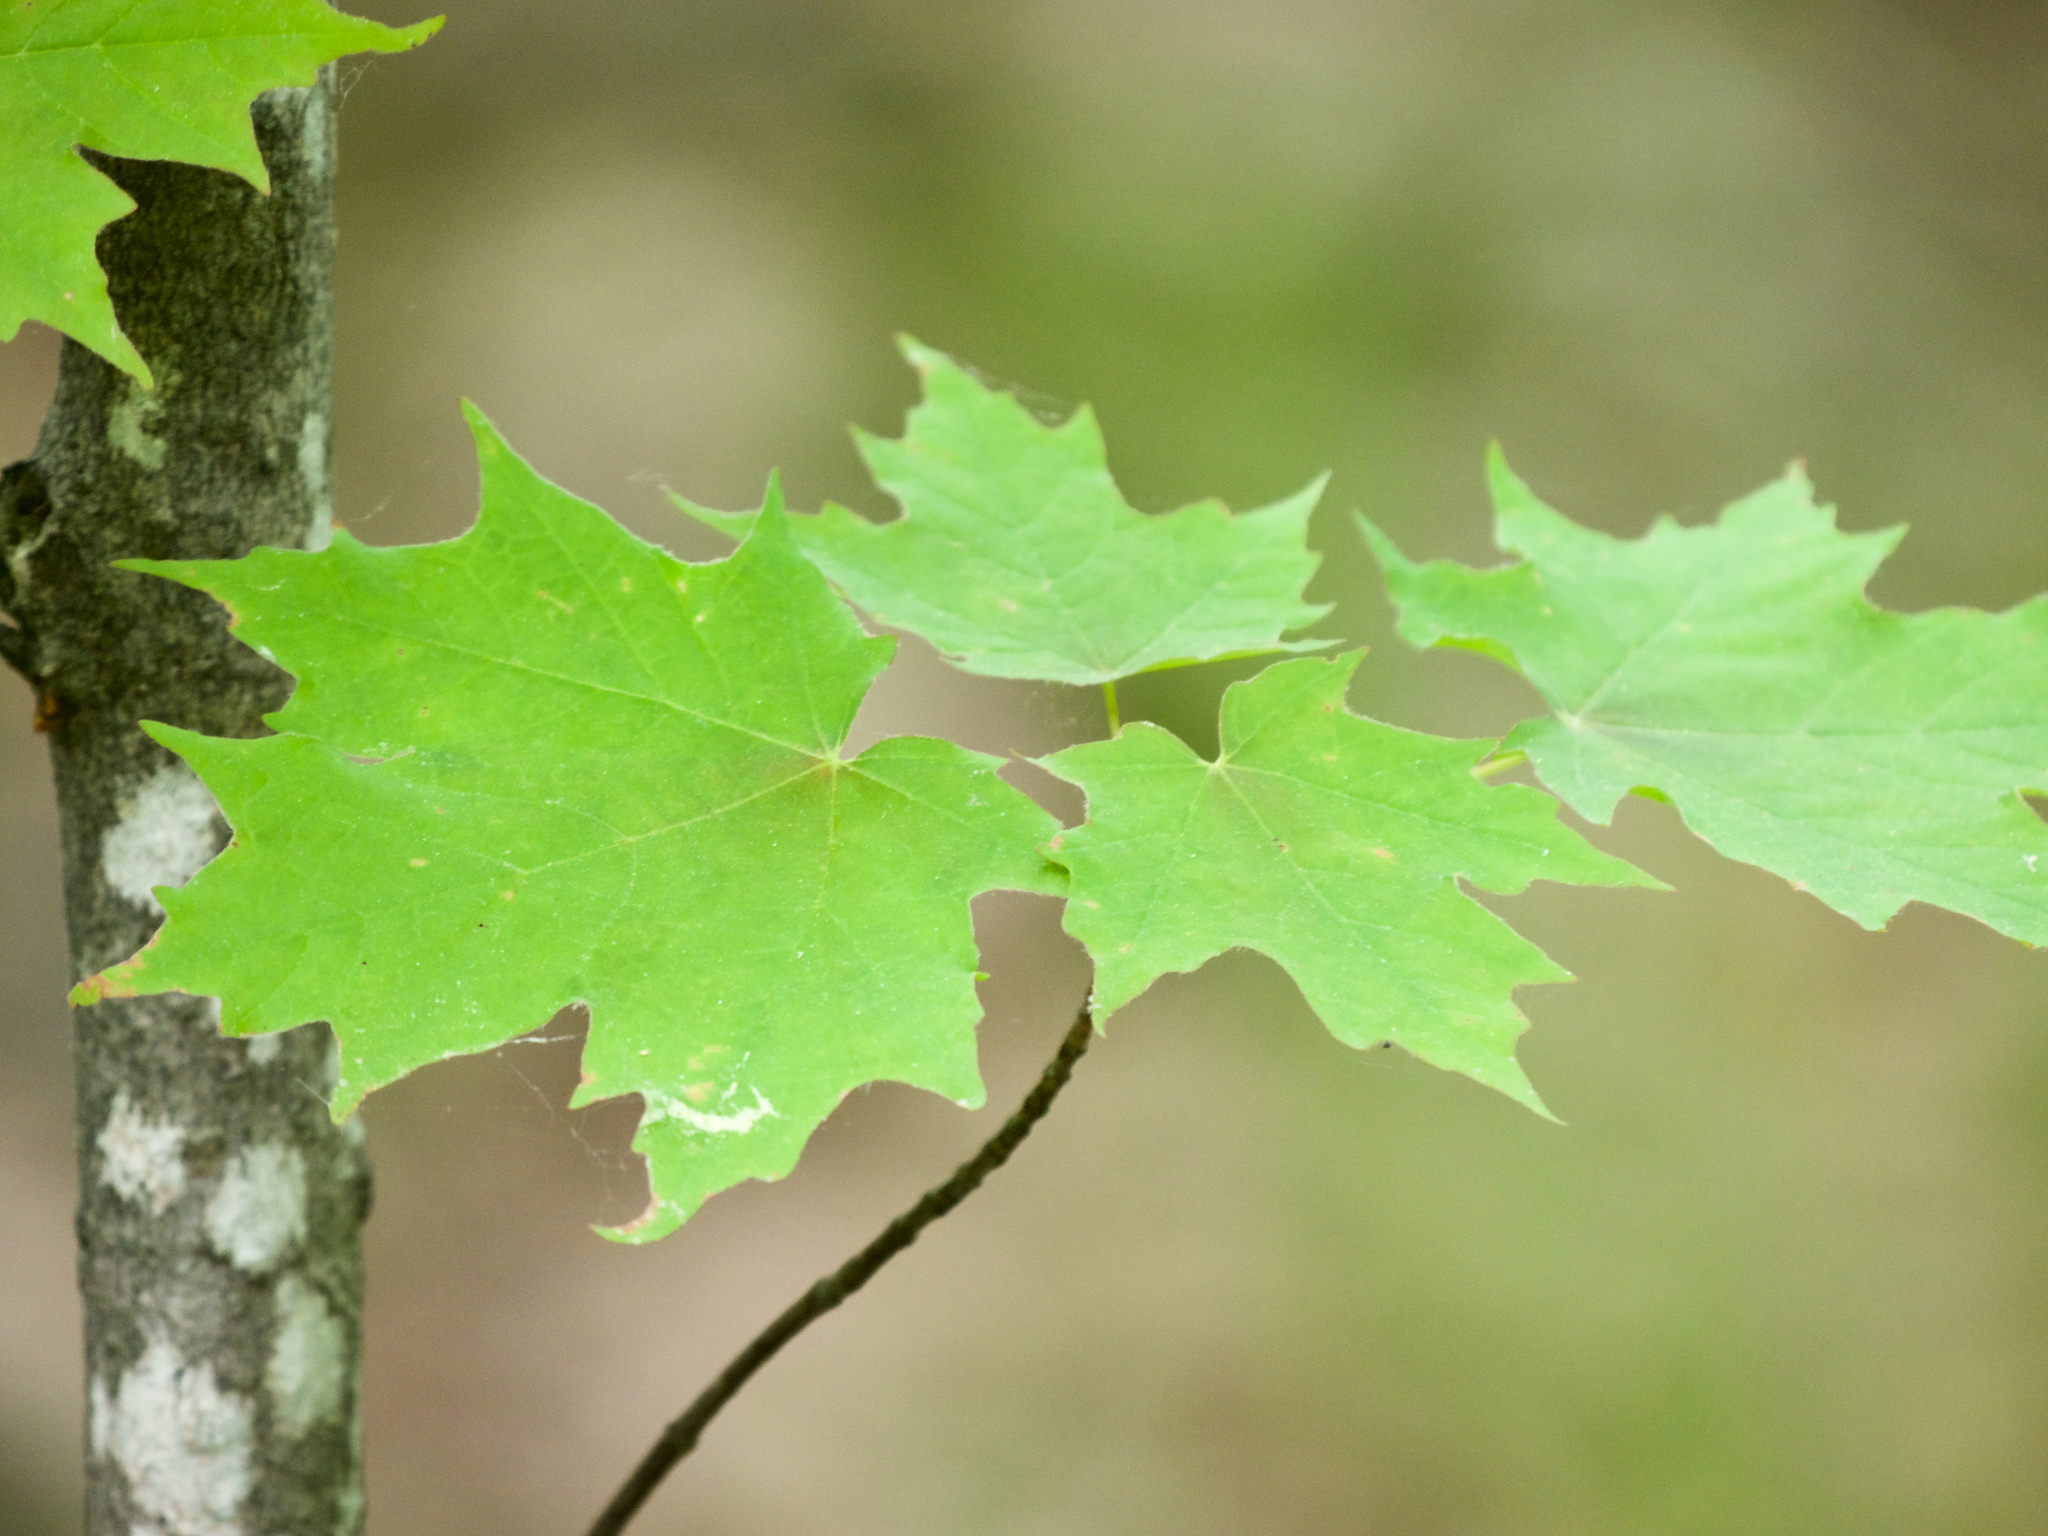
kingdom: Plantae
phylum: Tracheophyta
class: Magnoliopsida
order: Sapindales
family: Sapindaceae
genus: Acer
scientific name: Acer saccharum
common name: Sugar maple
